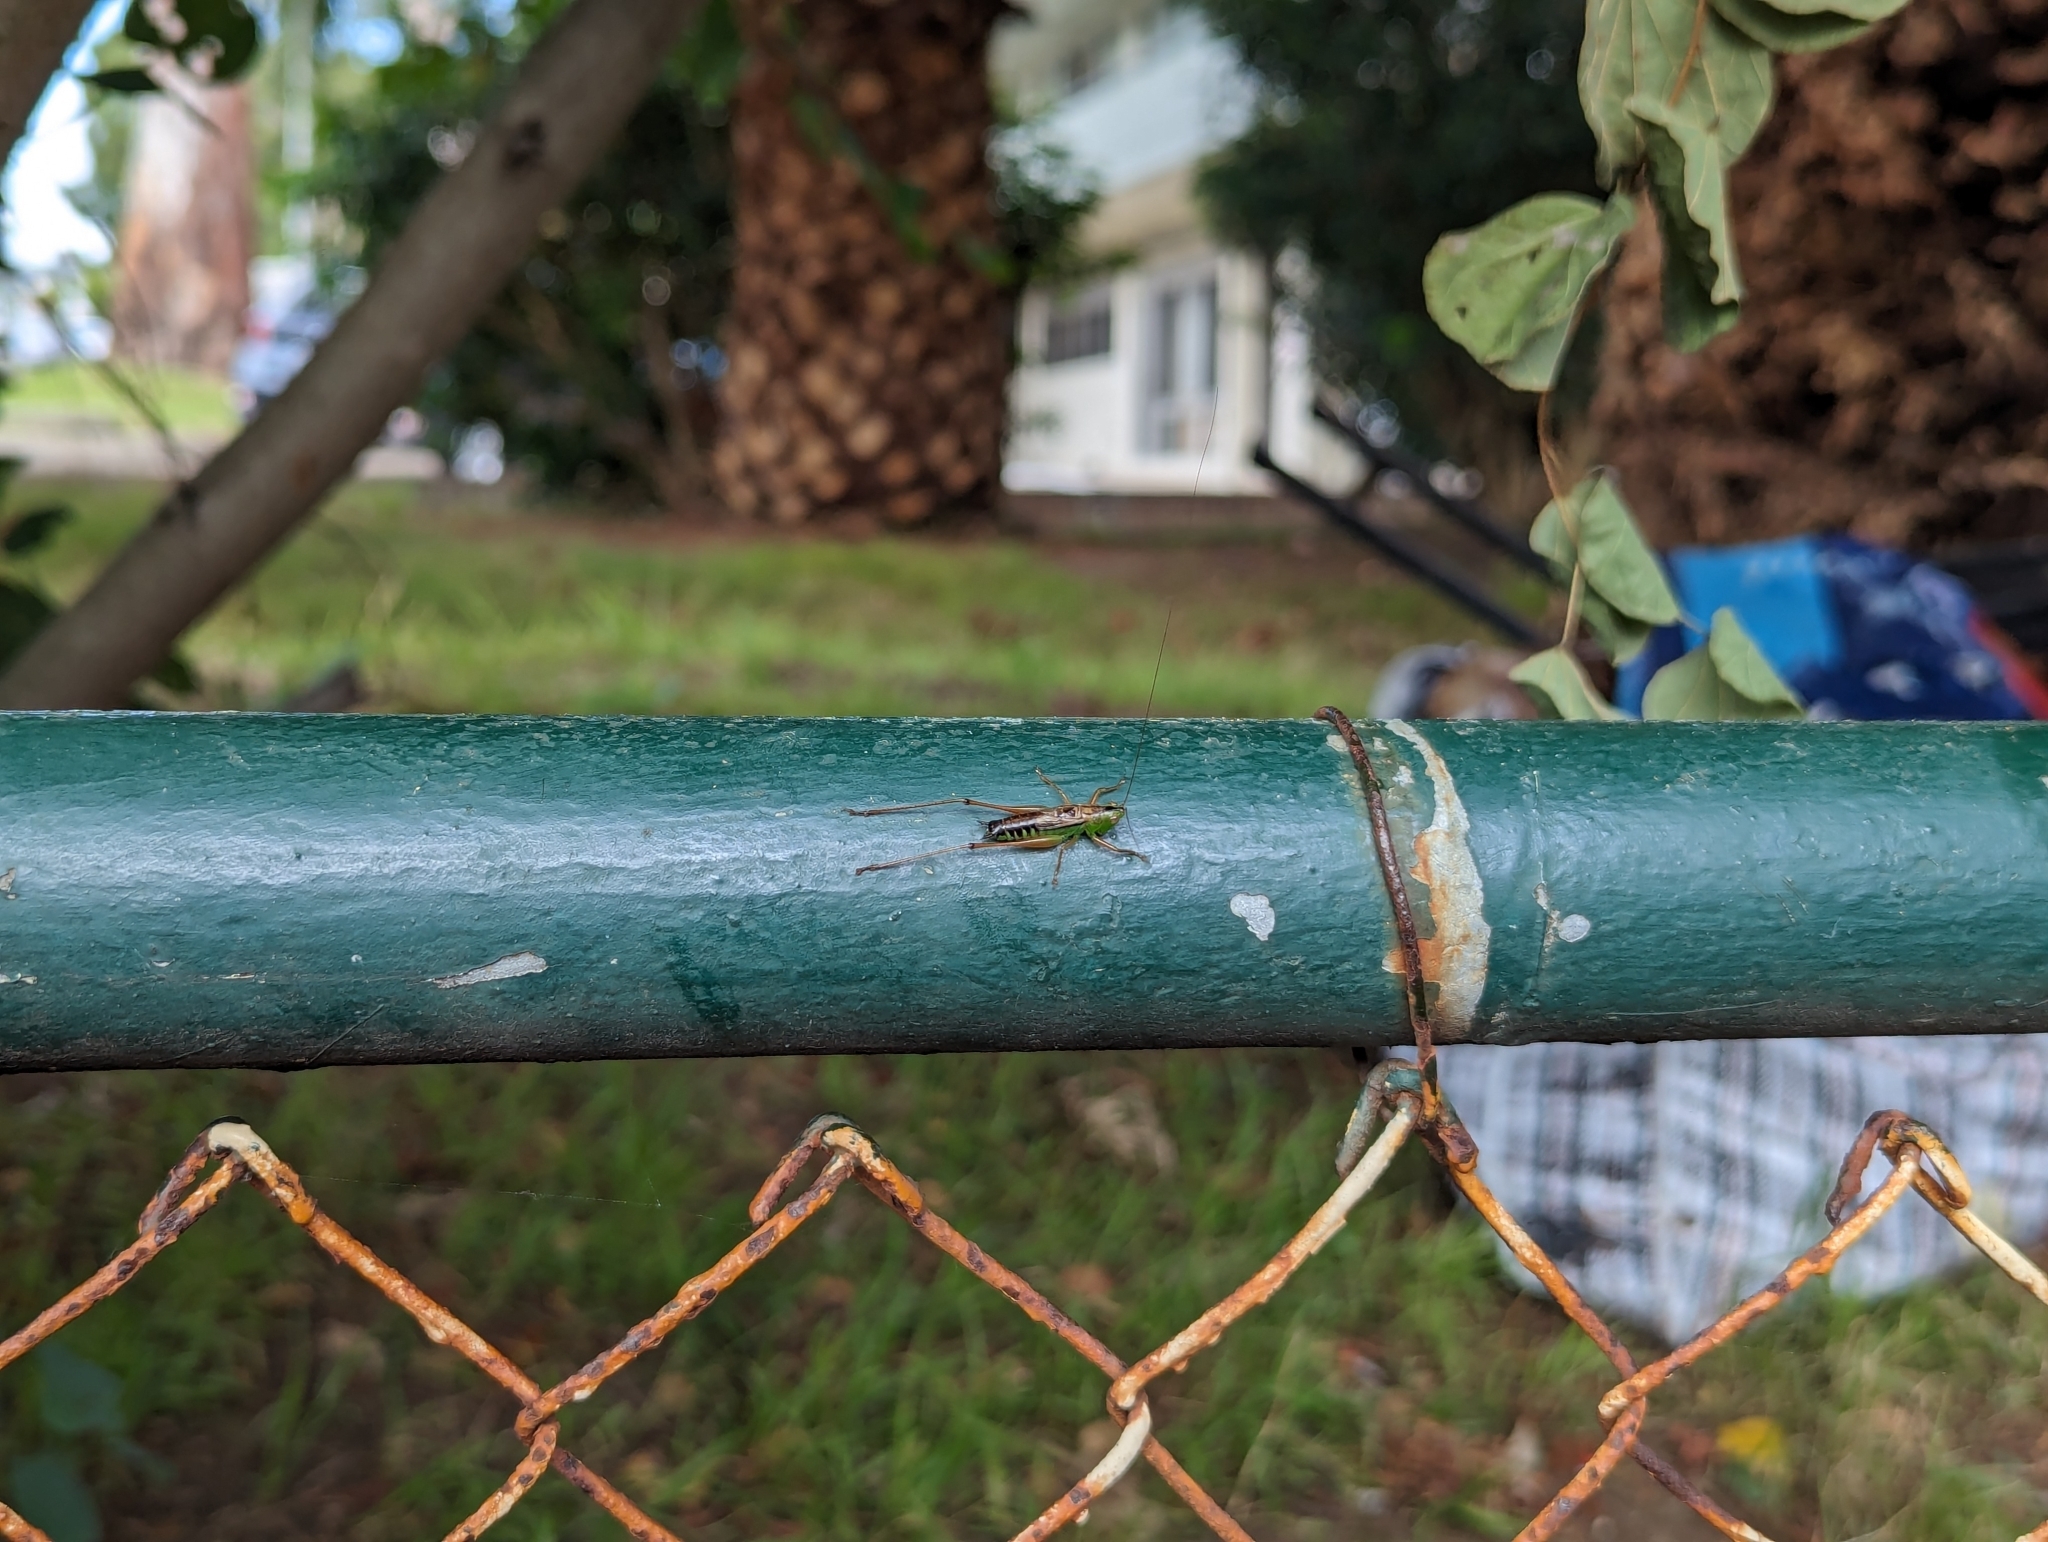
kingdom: Animalia
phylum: Arthropoda
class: Insecta
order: Orthoptera
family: Tettigoniidae
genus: Conocephalus
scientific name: Conocephalus semivittatus
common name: Blackish meadow katydid
